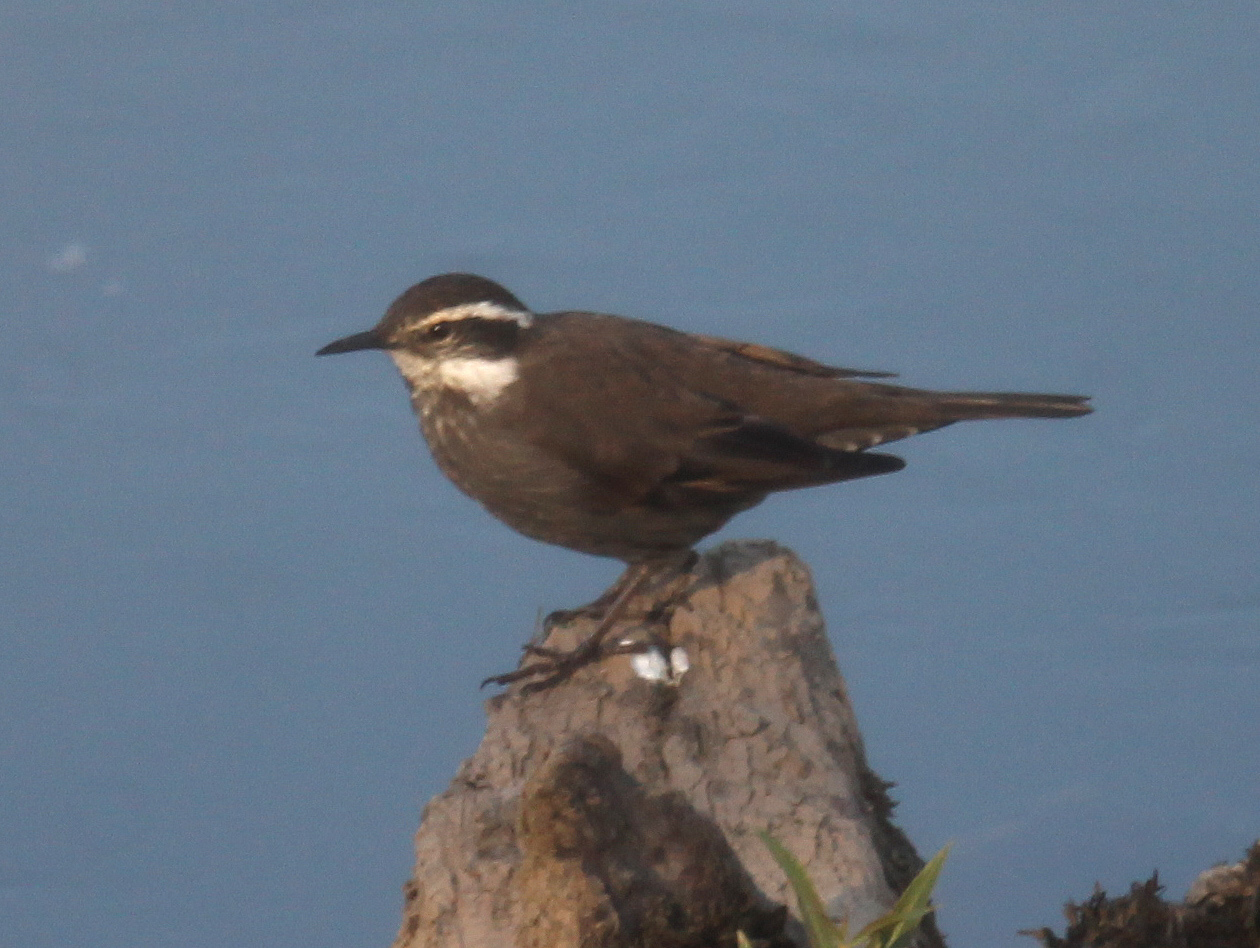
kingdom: Animalia
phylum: Chordata
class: Aves
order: Passeriformes
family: Furnariidae
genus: Cinclodes
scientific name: Cinclodes patagonicus
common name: Dark-bellied cinclodes
